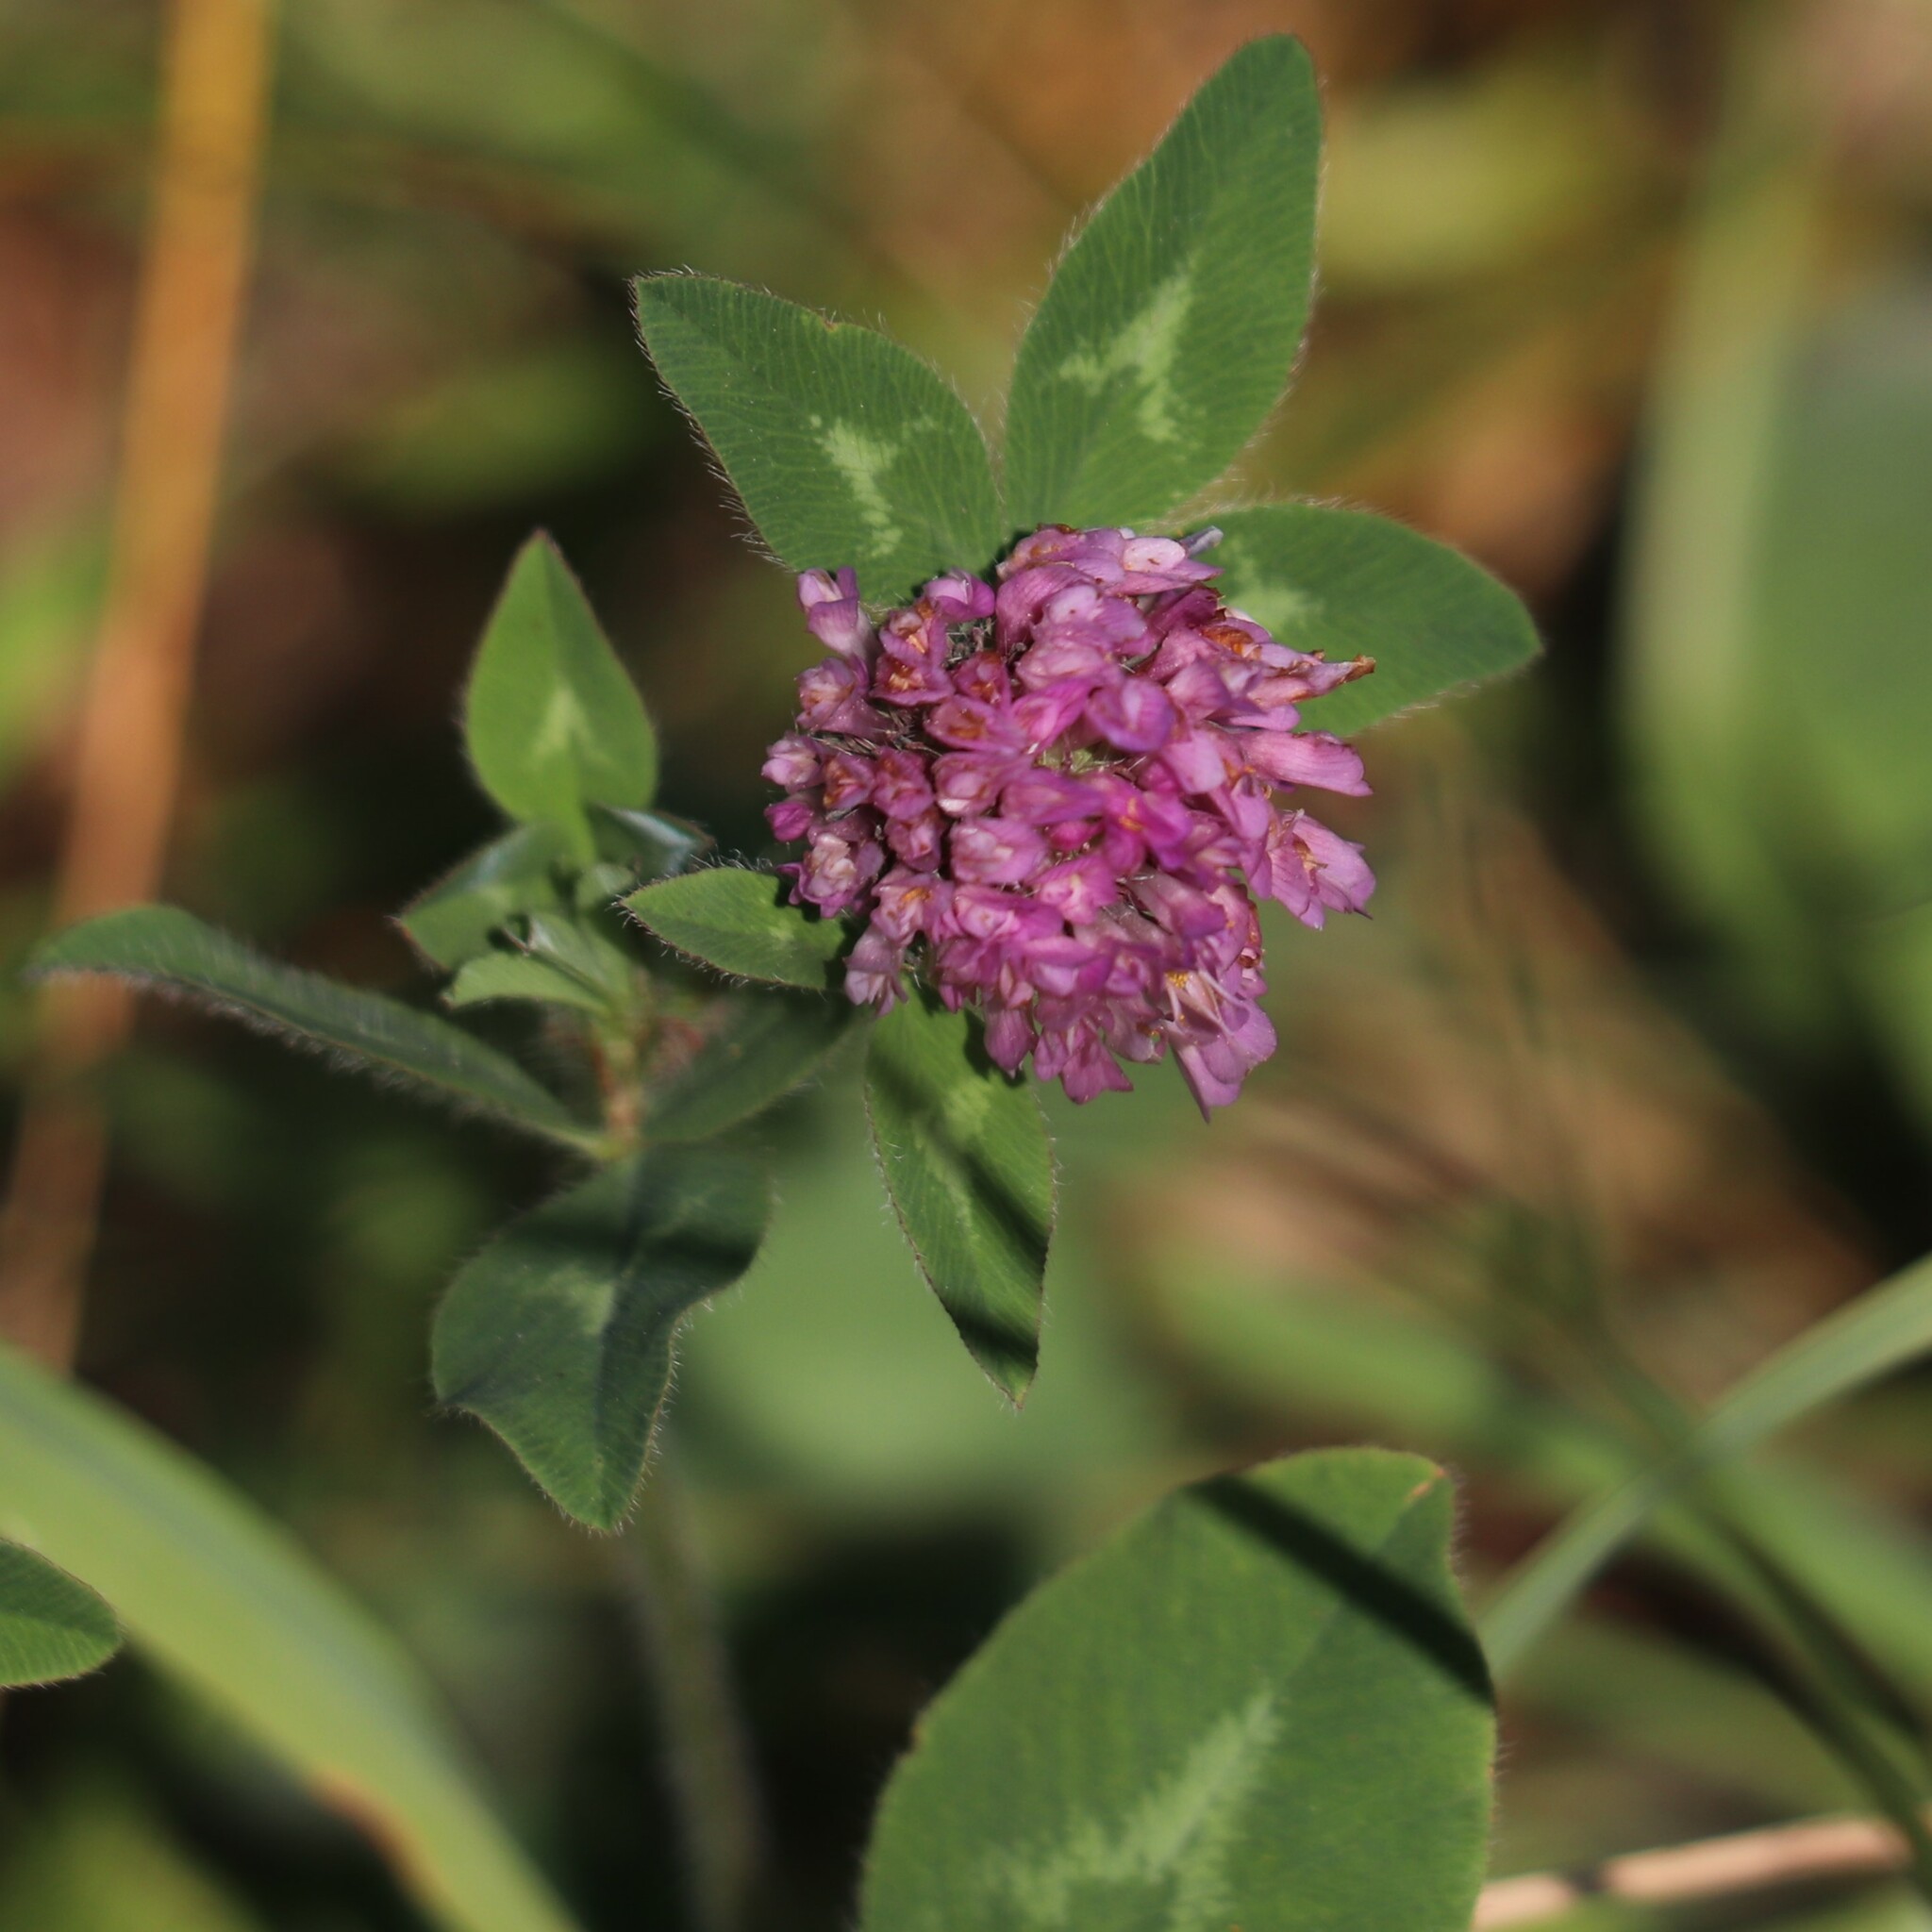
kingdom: Plantae
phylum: Tracheophyta
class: Magnoliopsida
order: Fabales
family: Fabaceae
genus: Trifolium
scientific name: Trifolium pratense
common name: Red clover
